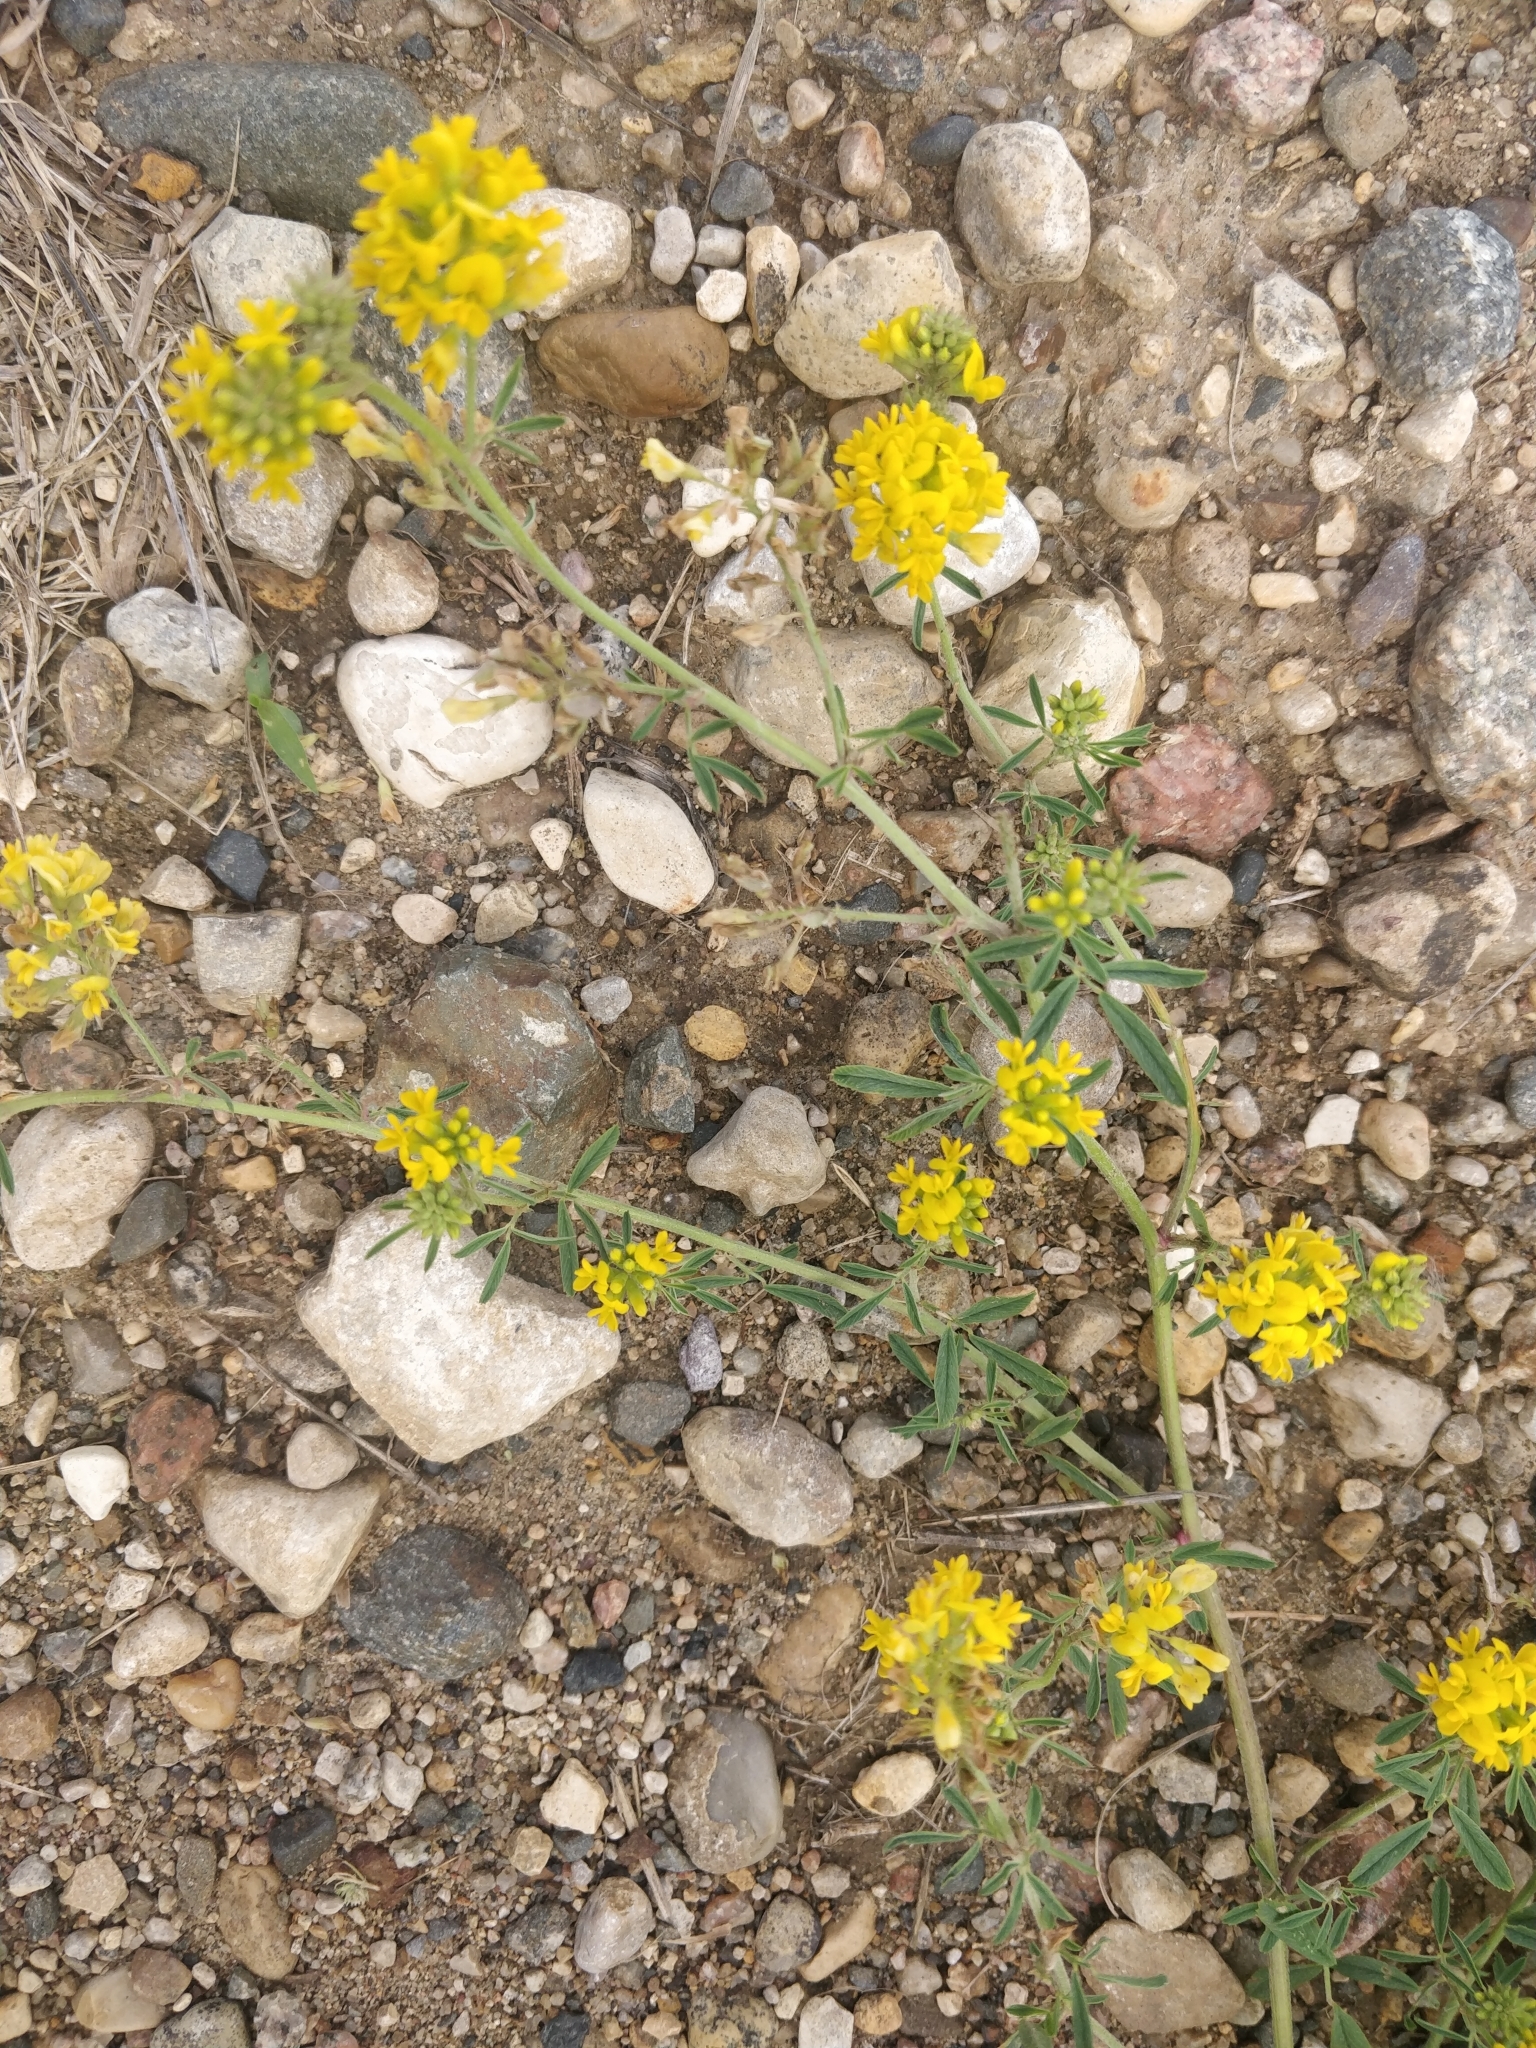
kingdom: Plantae
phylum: Tracheophyta
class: Magnoliopsida
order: Fabales
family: Fabaceae
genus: Medicago
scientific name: Medicago falcata
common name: Sickle medick
